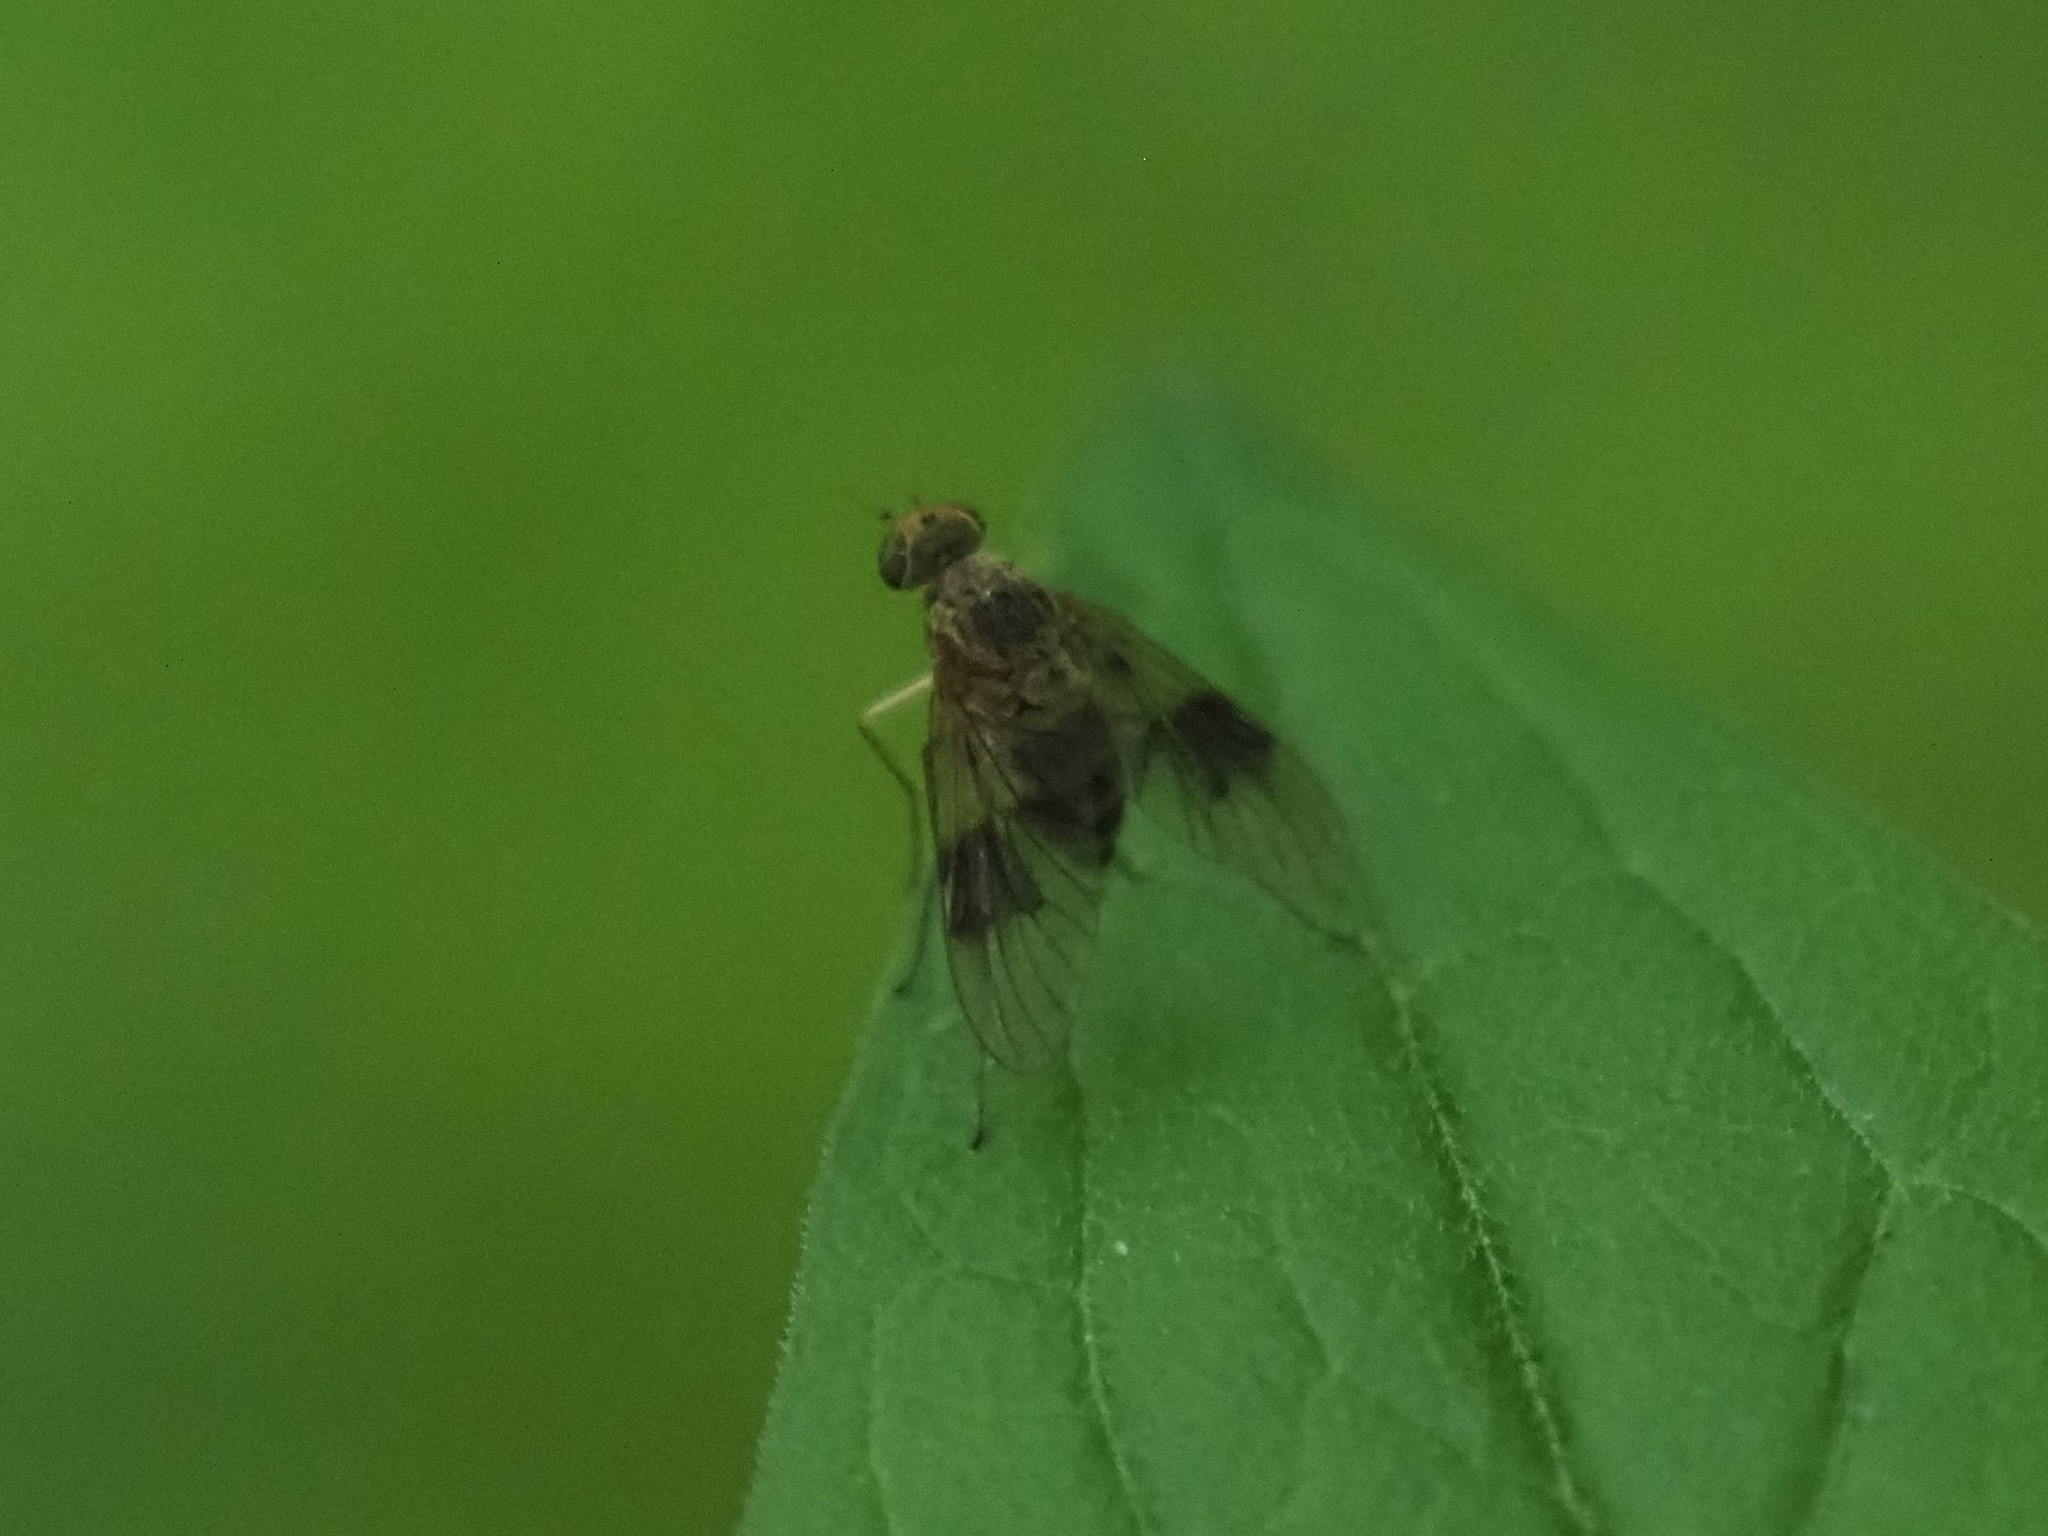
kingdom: Animalia
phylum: Arthropoda
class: Insecta
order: Diptera
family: Rhagionidae
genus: Chrysopilus
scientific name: Chrysopilus quadratus
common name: Quadrate snipe fly
